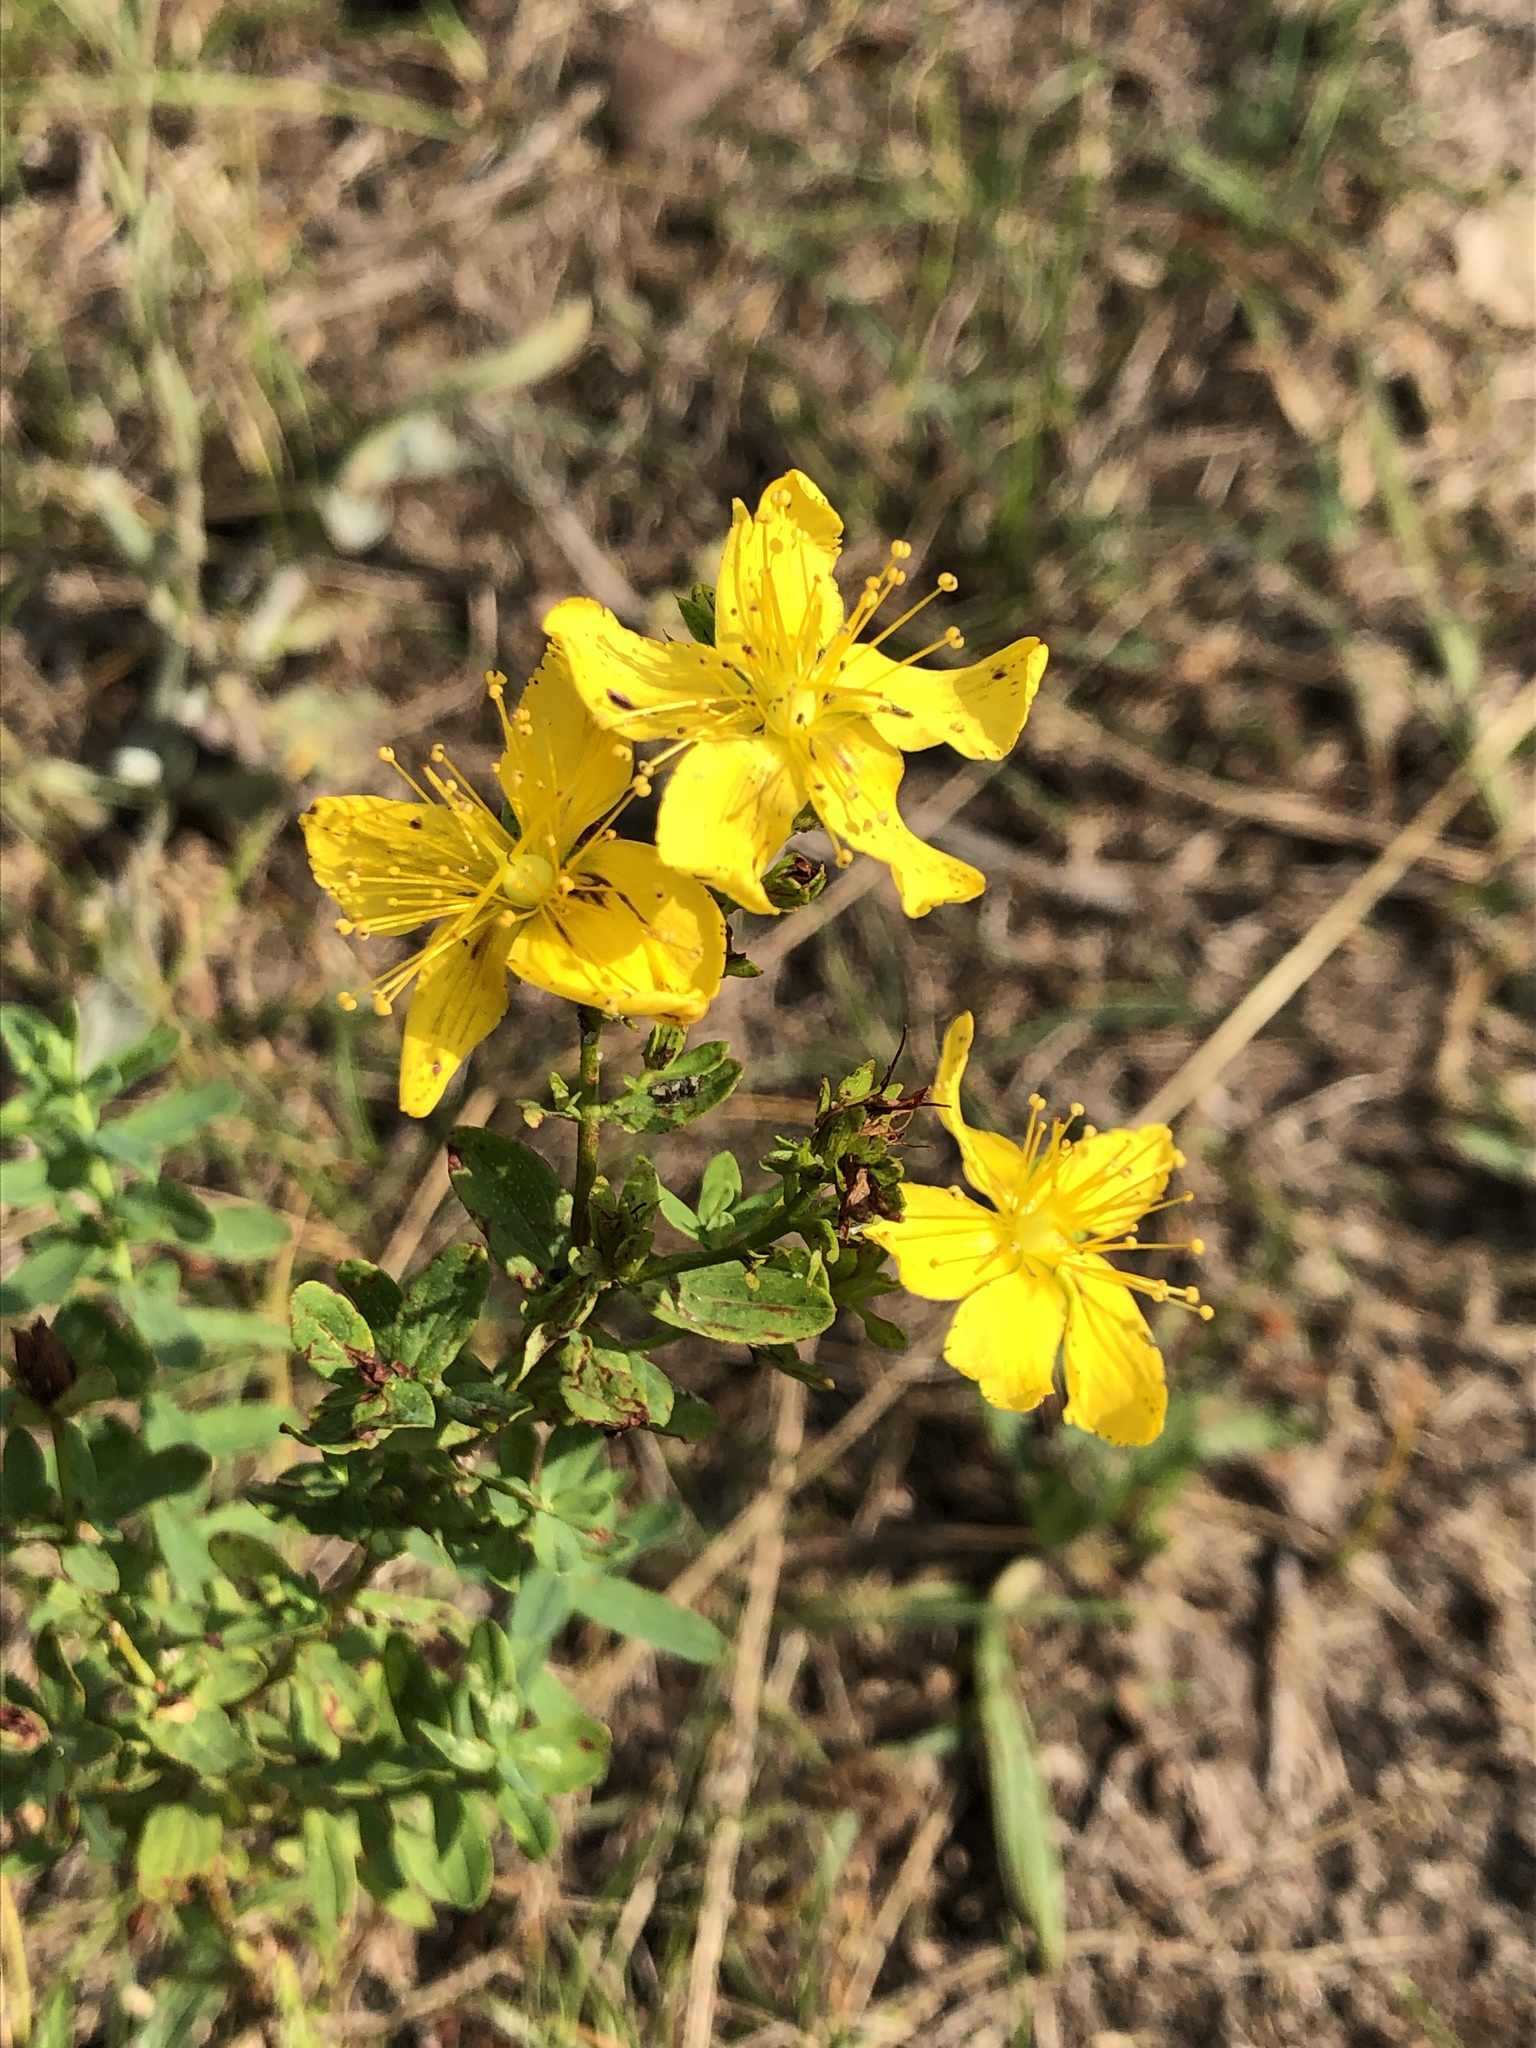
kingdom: Plantae
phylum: Tracheophyta
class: Magnoliopsida
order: Malpighiales
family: Hypericaceae
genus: Hypericum
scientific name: Hypericum perforatum
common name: Common st. johnswort
